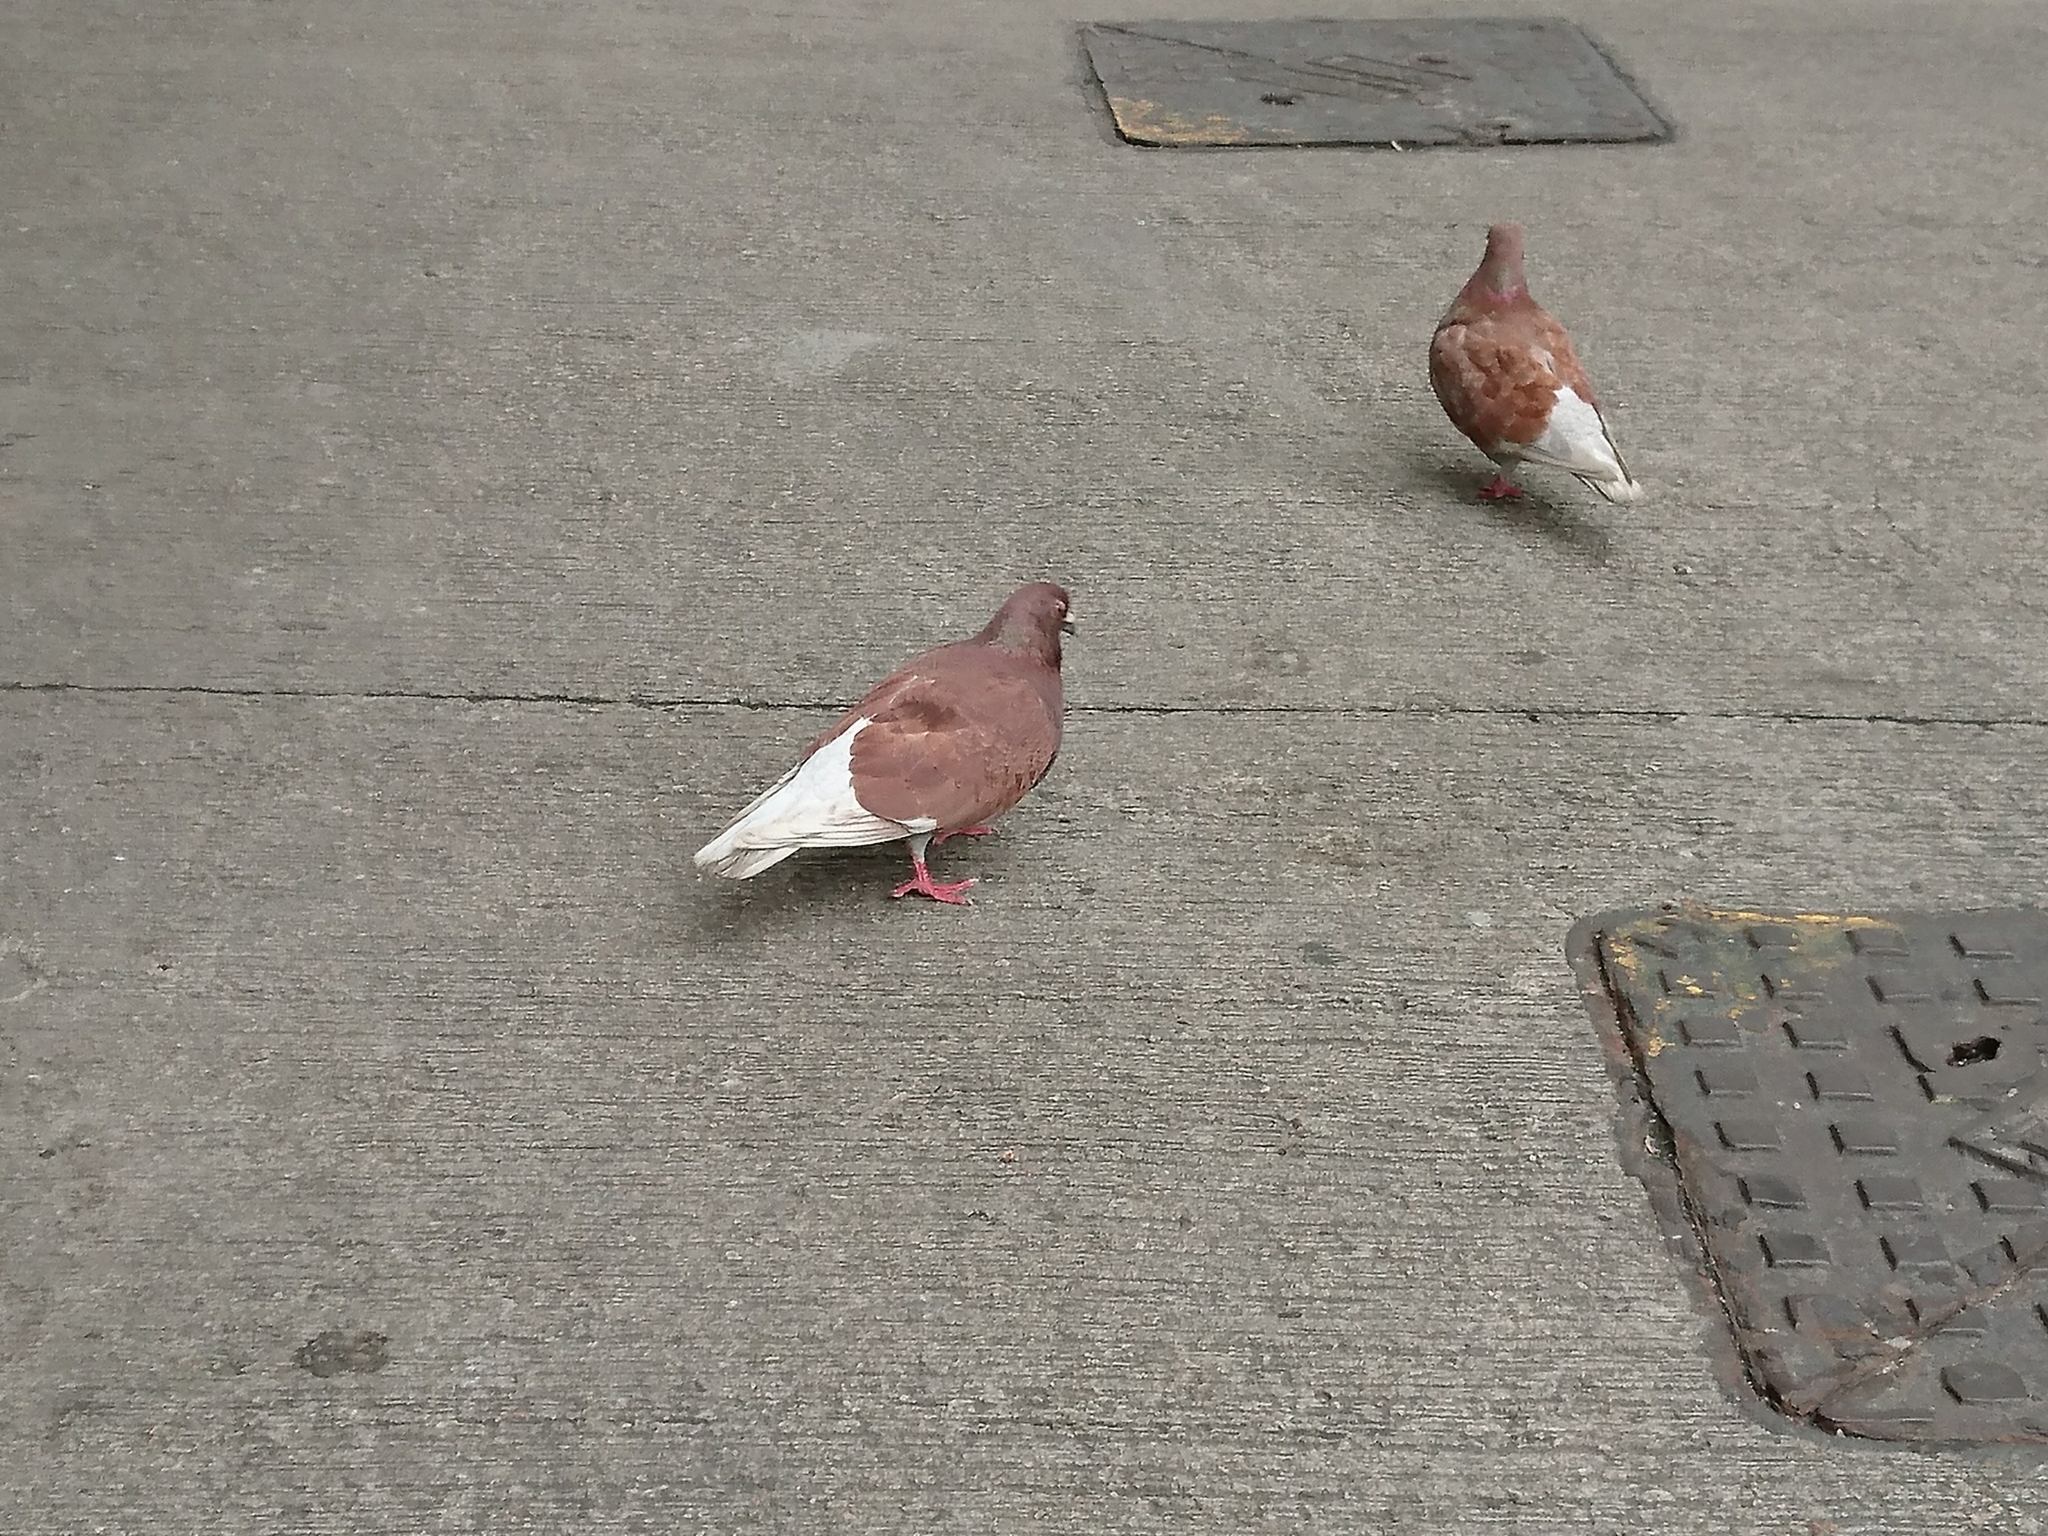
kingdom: Animalia
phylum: Chordata
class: Aves
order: Columbiformes
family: Columbidae
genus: Columba
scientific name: Columba livia
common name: Rock pigeon
